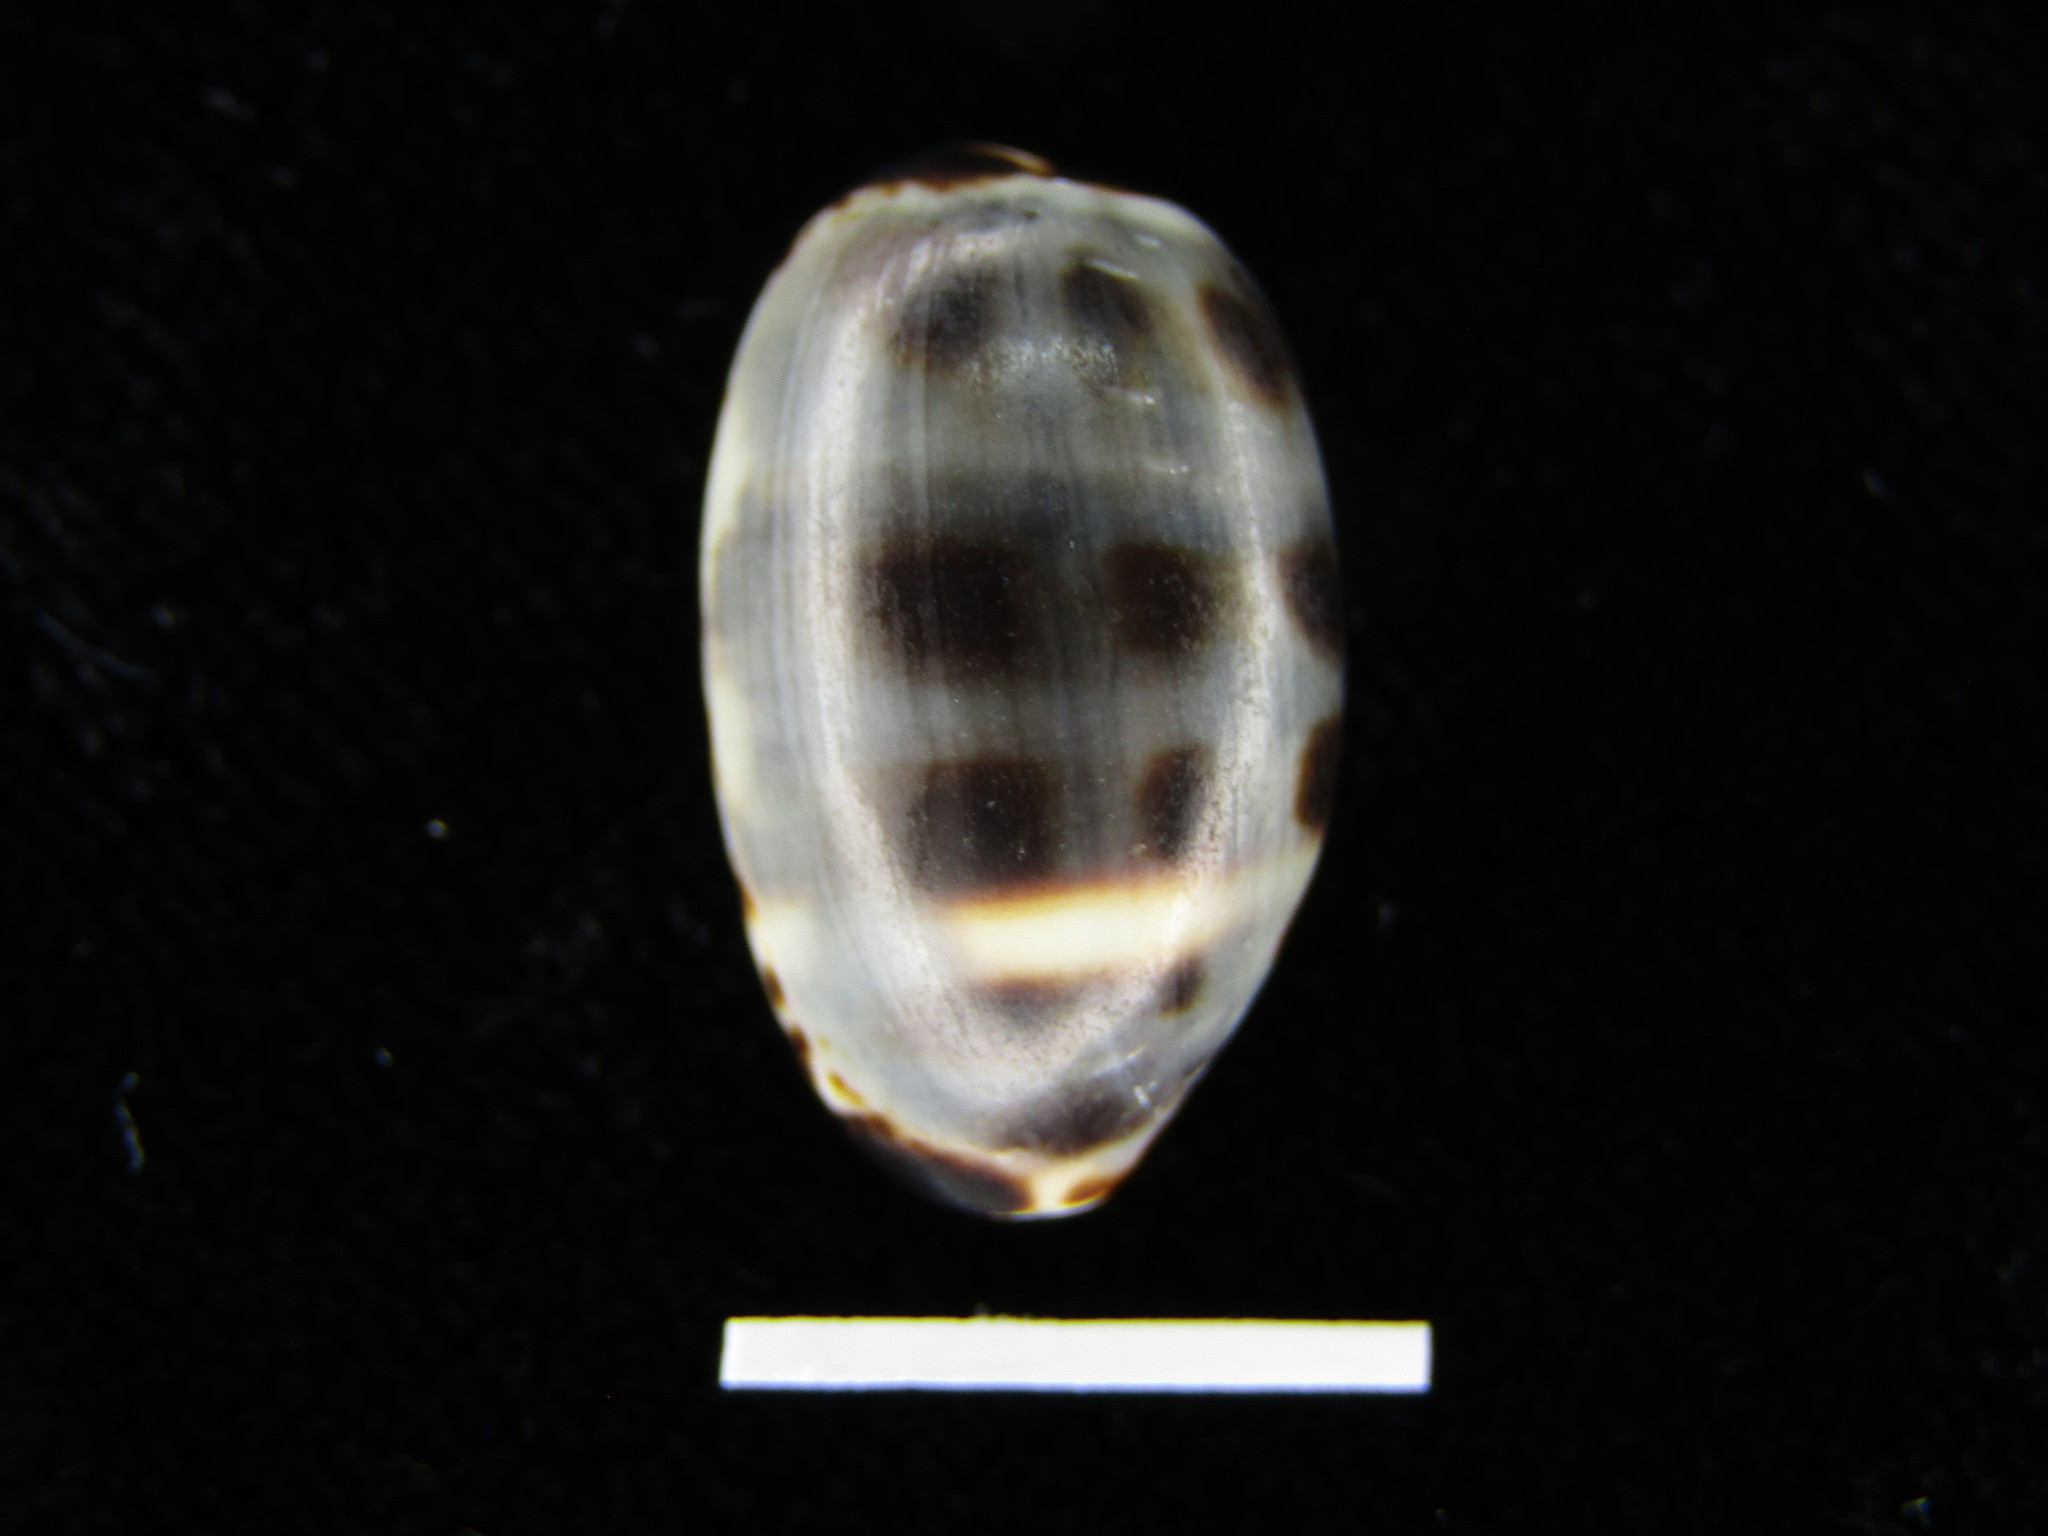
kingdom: Animalia
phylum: Mollusca
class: Gastropoda
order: Littorinimorpha
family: Cypraeidae
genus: Melicerona
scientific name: Melicerona listeri
